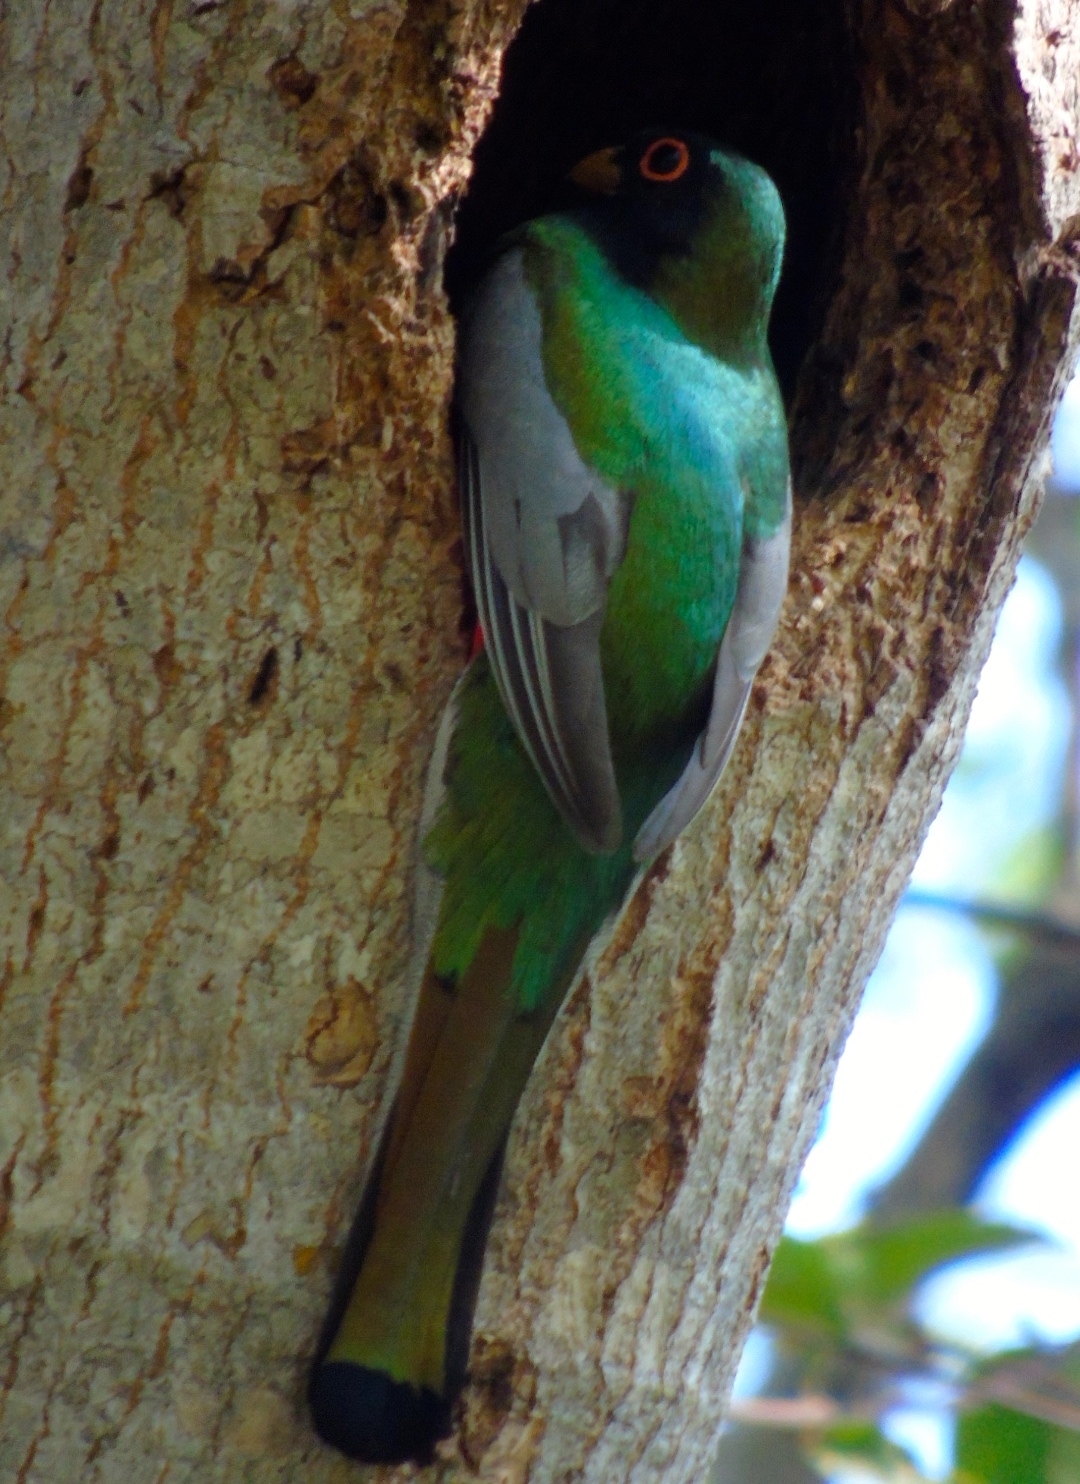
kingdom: Animalia
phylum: Chordata
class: Aves
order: Trogoniformes
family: Trogonidae
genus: Trogon
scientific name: Trogon elegans
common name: Elegant trogon
